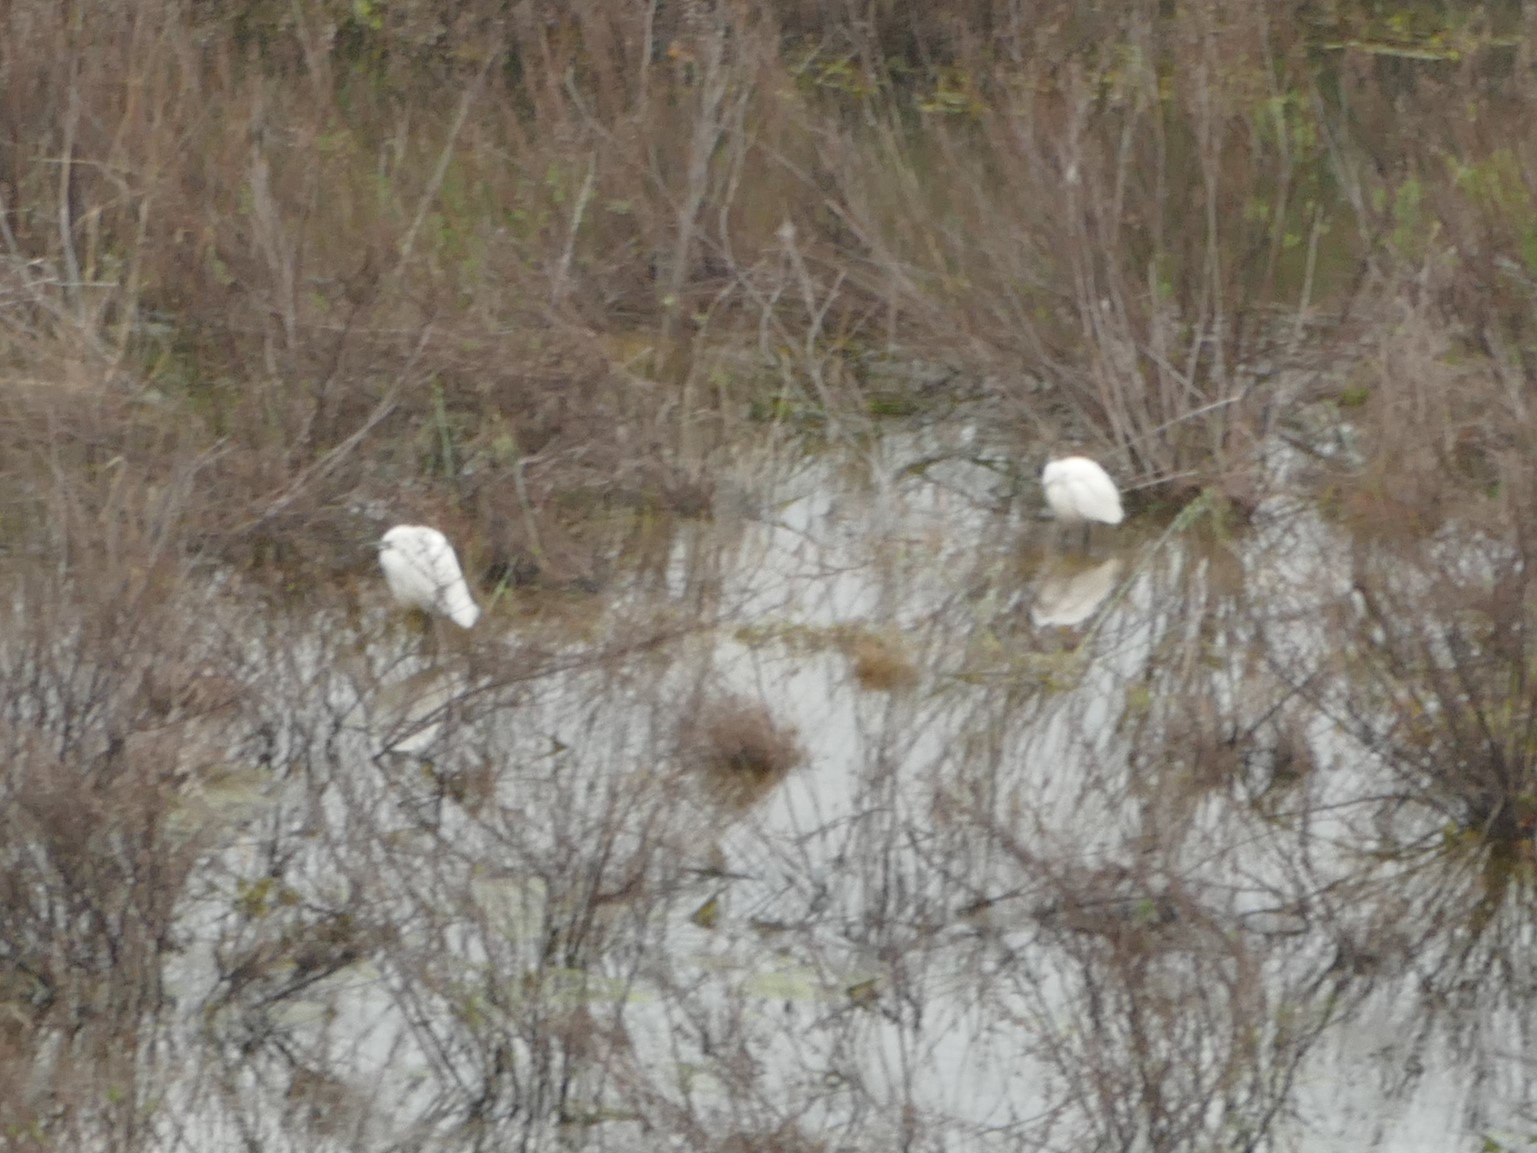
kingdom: Animalia
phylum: Chordata
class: Aves
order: Pelecaniformes
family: Ardeidae
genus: Egretta
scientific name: Egretta garzetta
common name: Little egret
